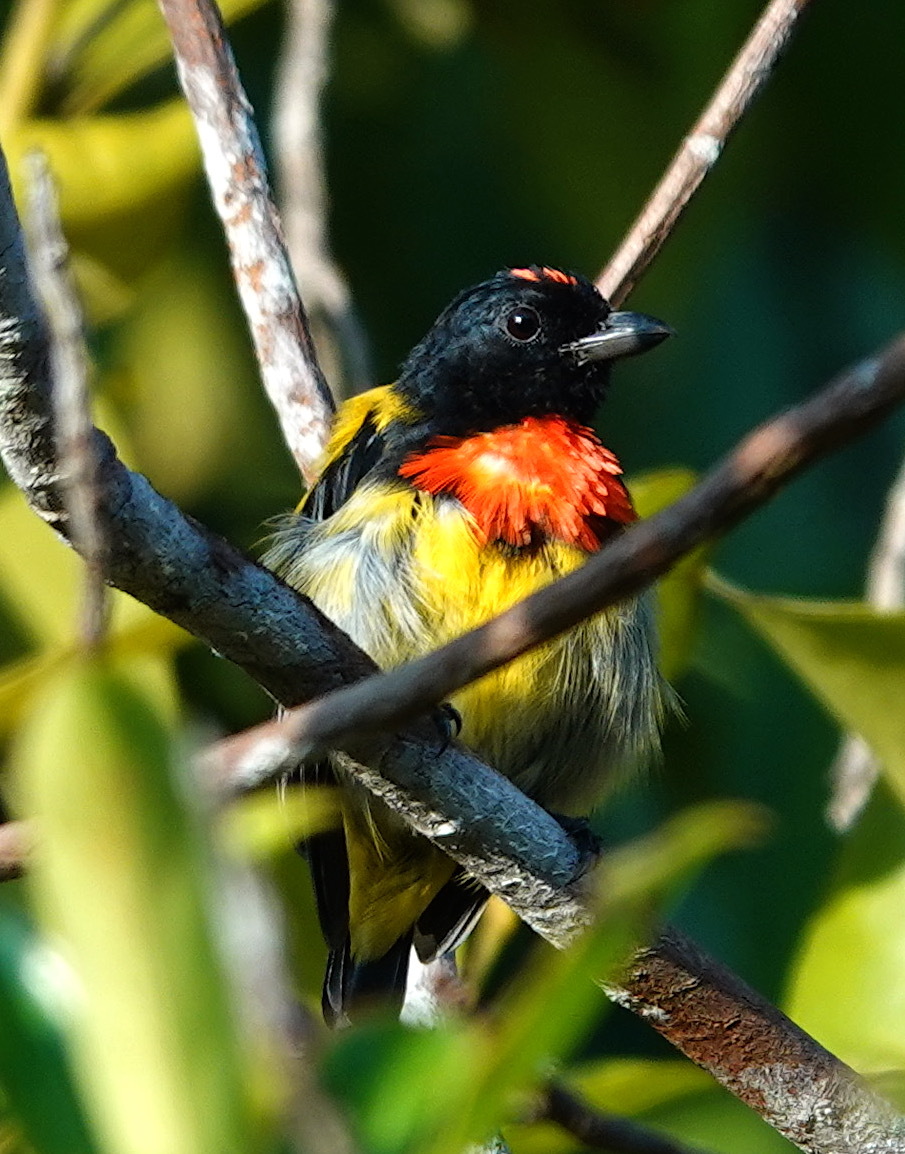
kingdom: Animalia
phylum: Chordata
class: Aves
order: Passeriformes
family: Dicaeidae
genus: Prionochilus
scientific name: Prionochilus thoracicus
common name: Scarlet-breasted flowerpecker
